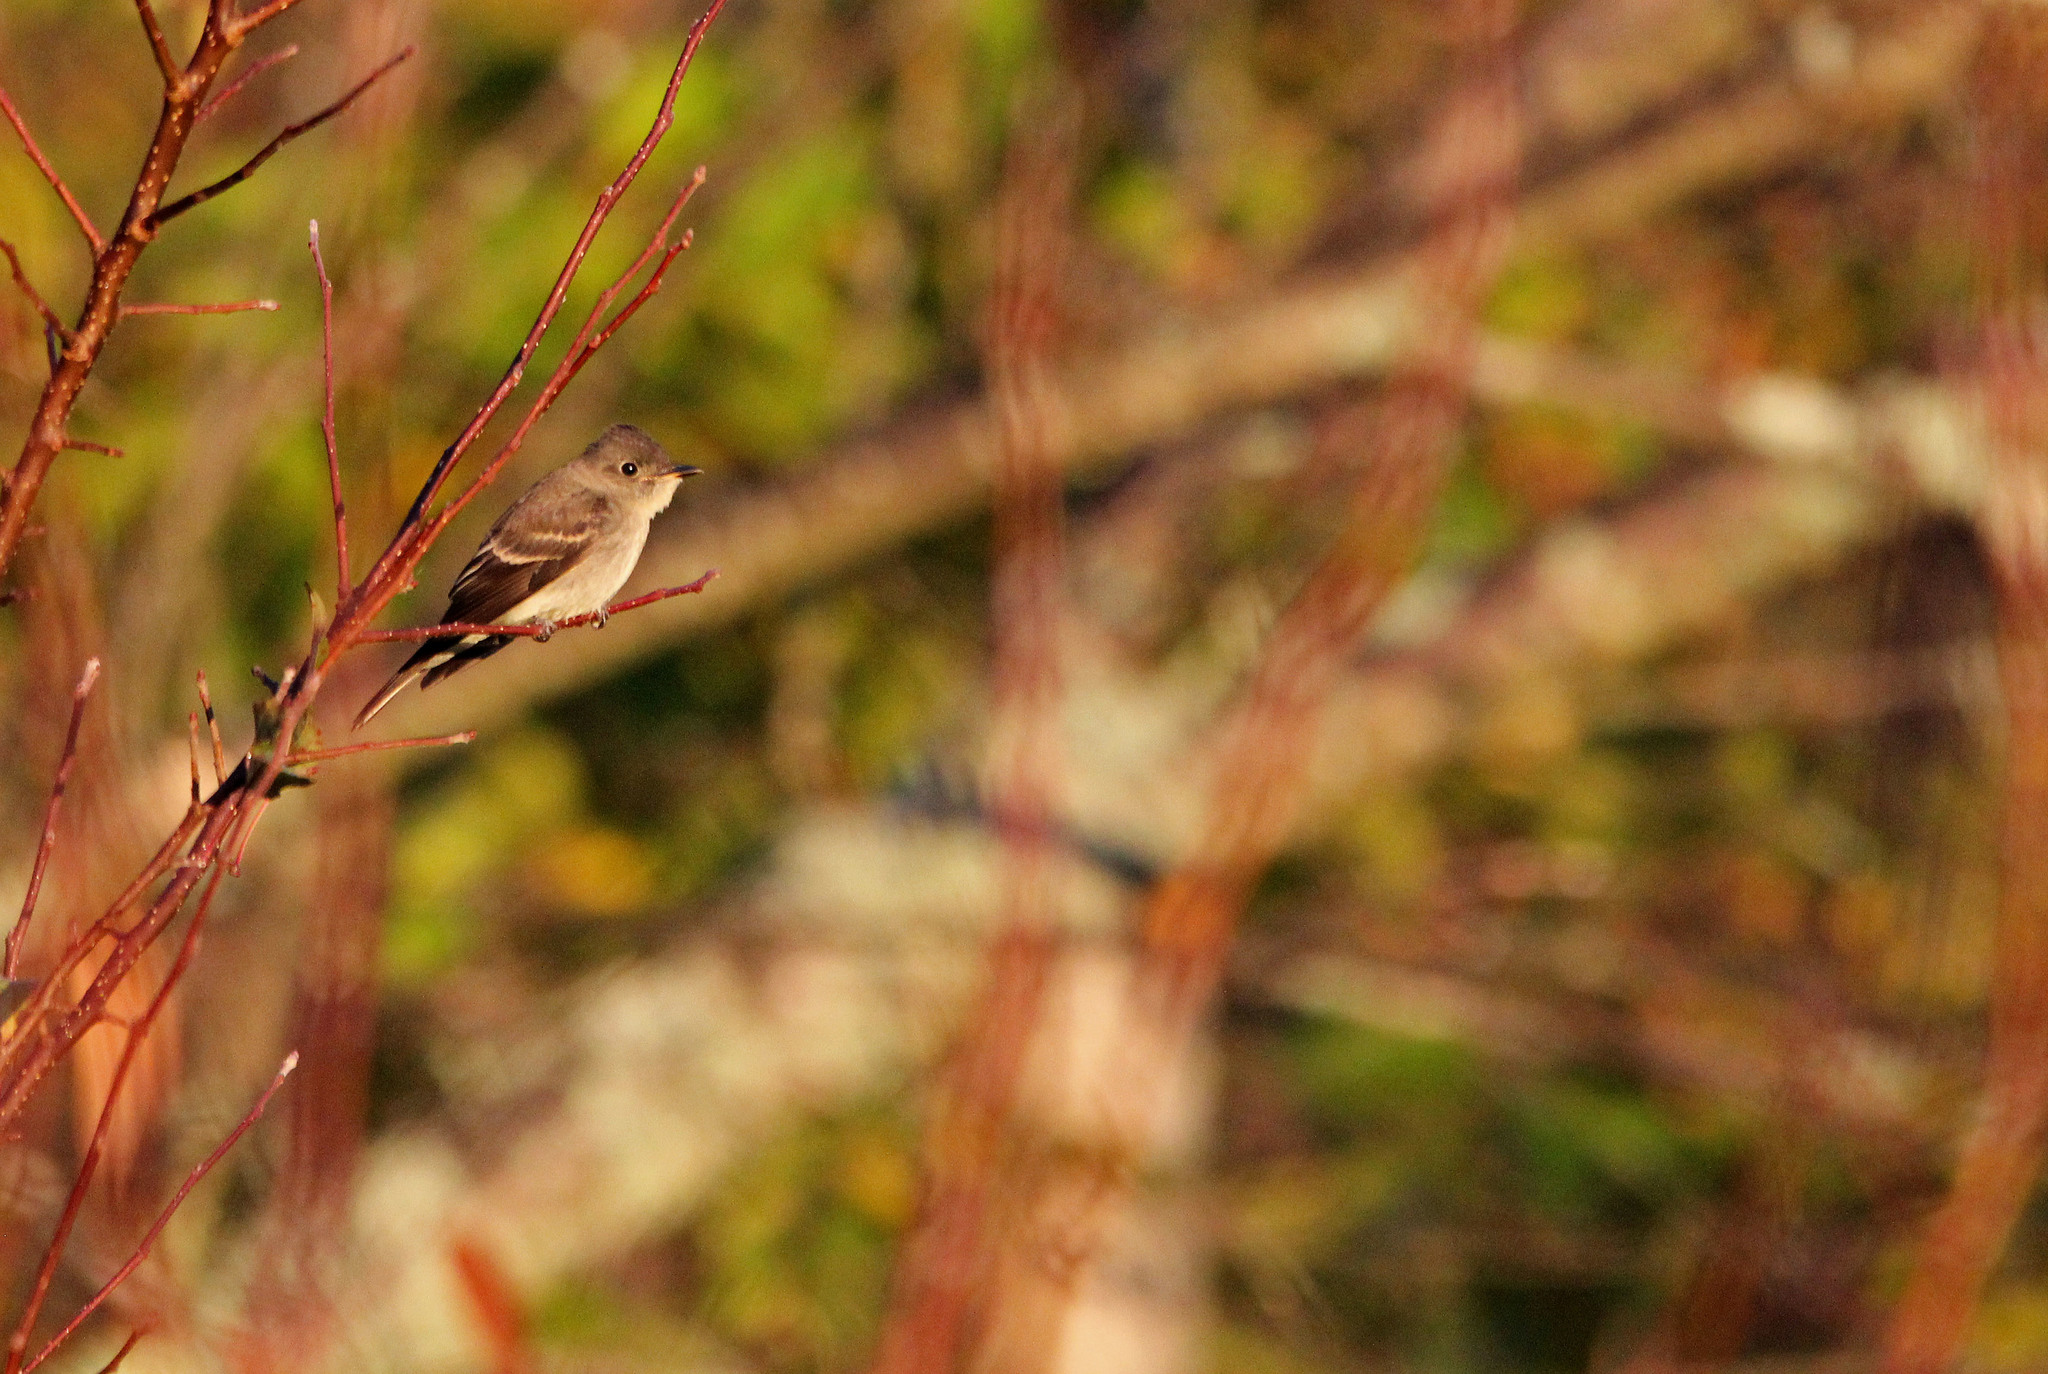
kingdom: Animalia
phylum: Chordata
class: Aves
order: Passeriformes
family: Tyrannidae
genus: Contopus
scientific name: Contopus virens
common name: Eastern wood-pewee
